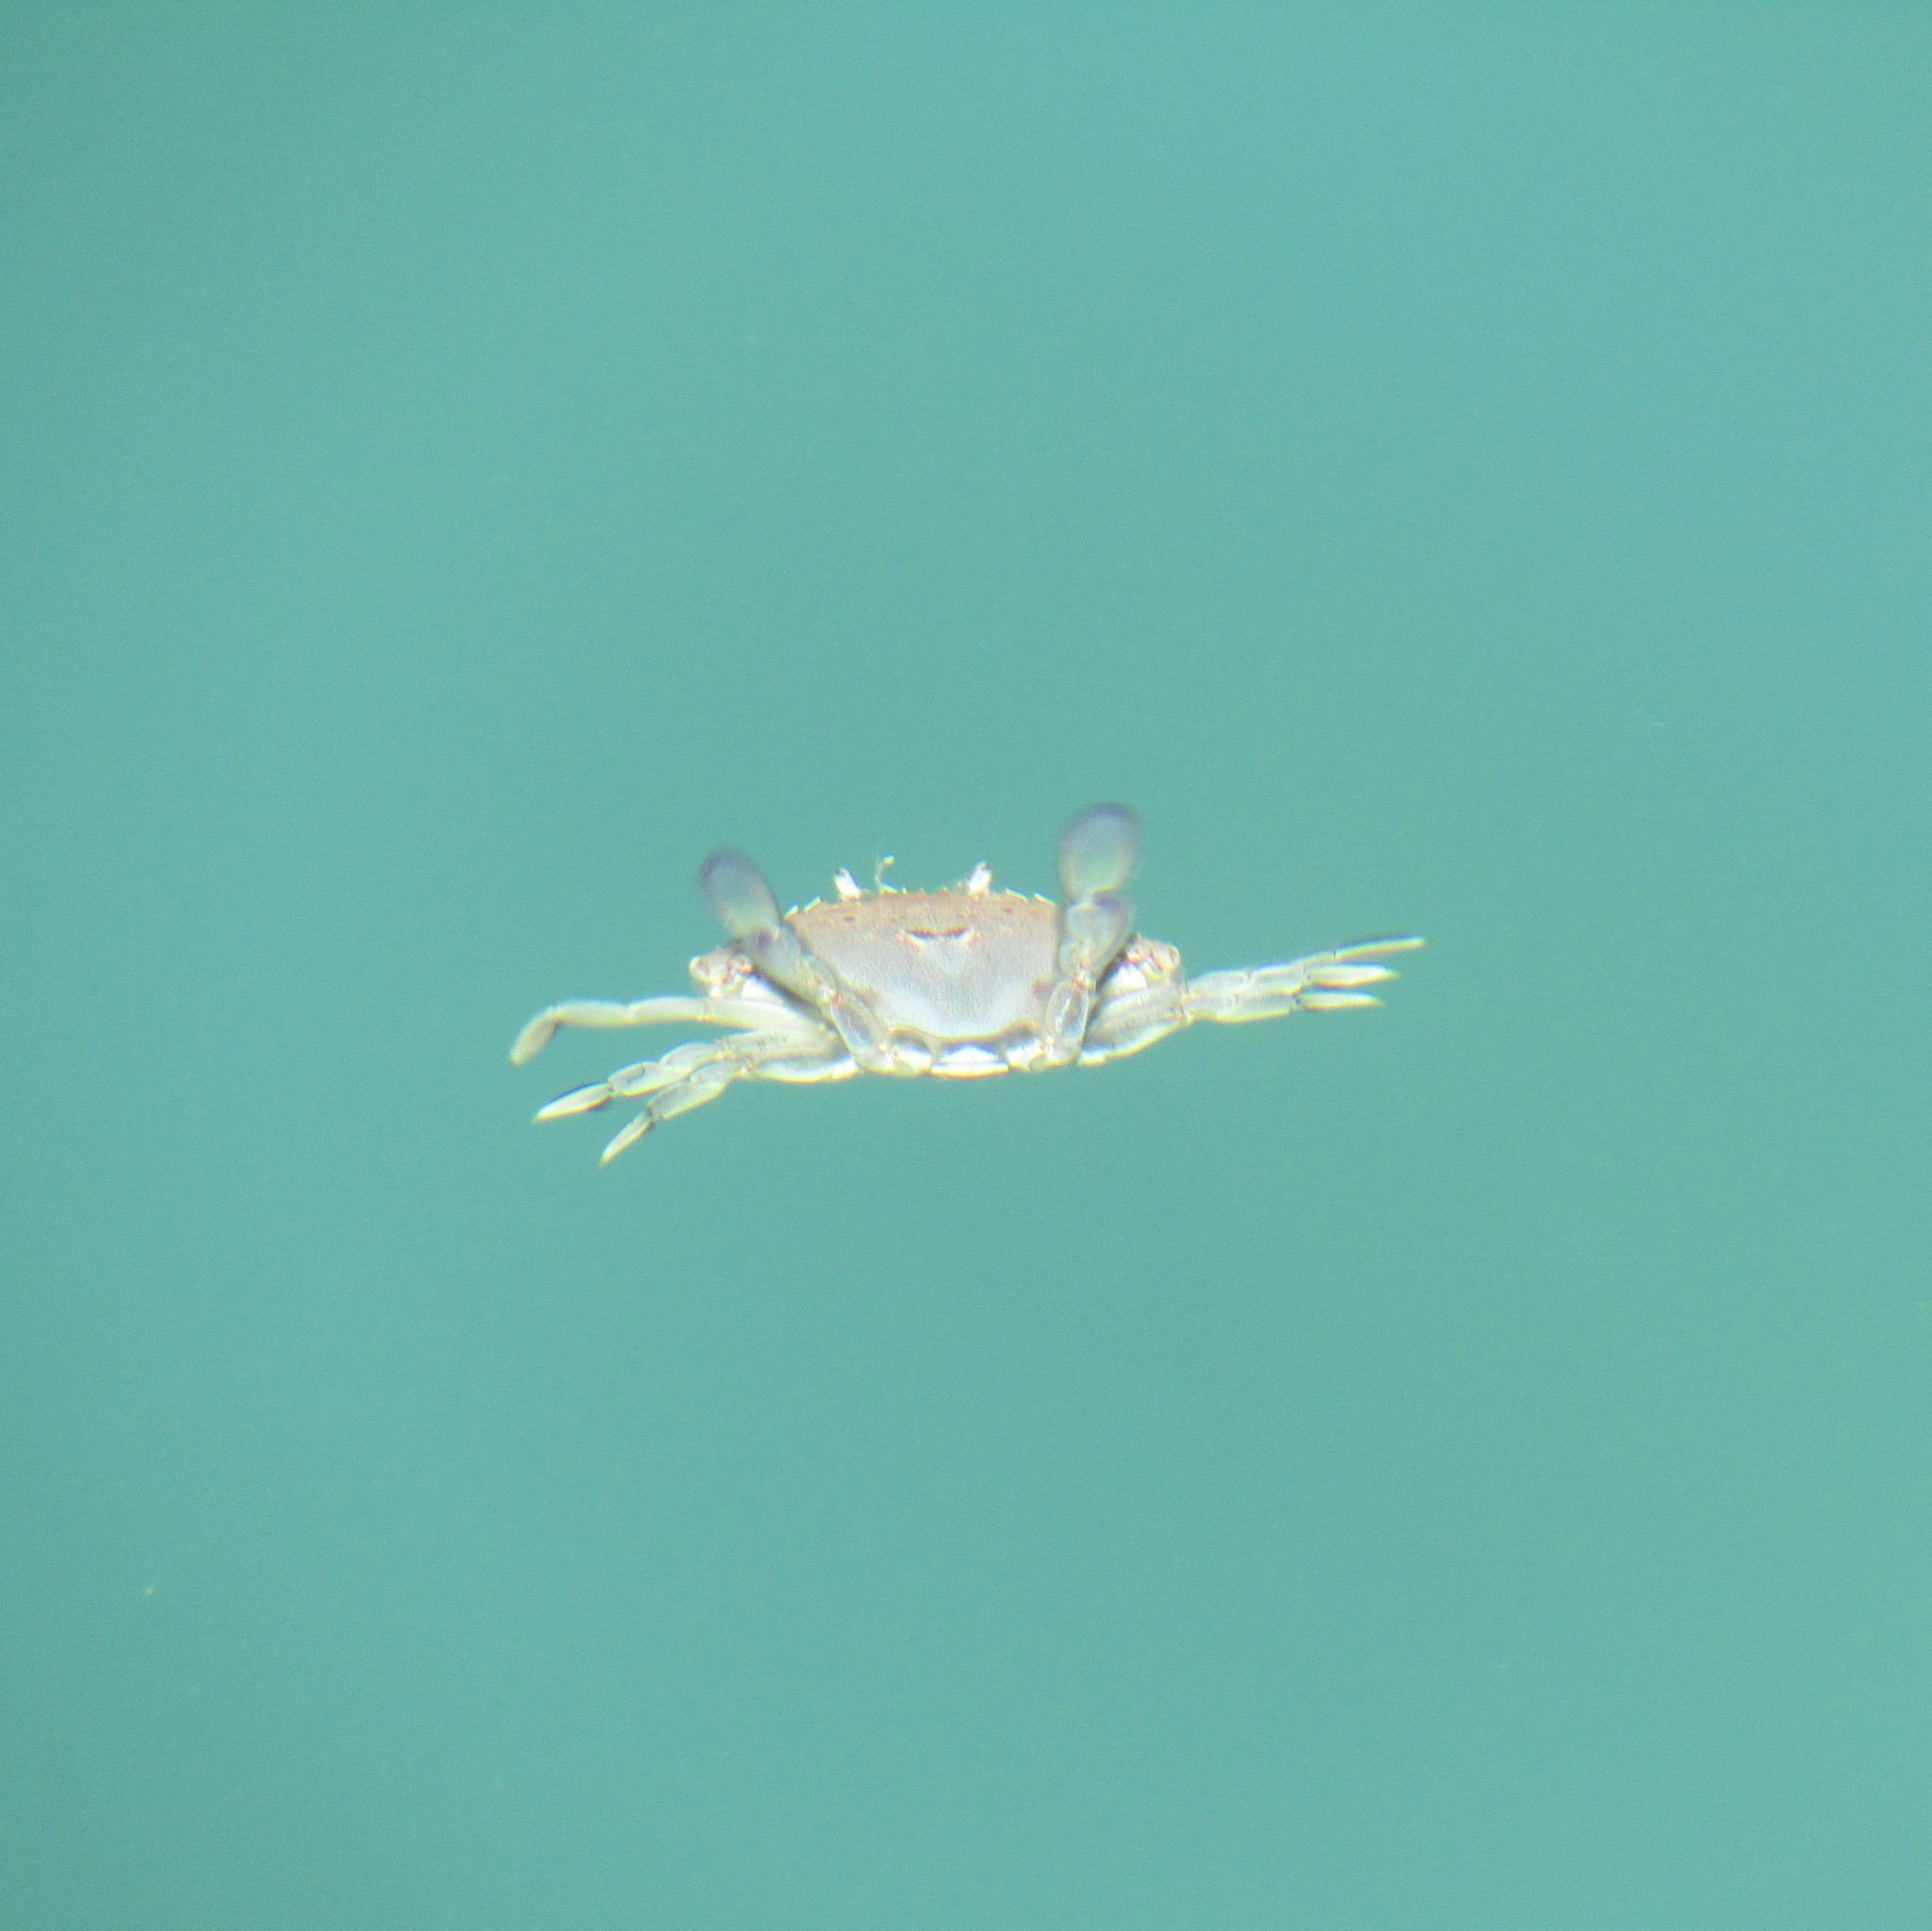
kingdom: Animalia
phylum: Arthropoda
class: Malacostraca
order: Decapoda
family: Ovalipidae
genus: Ovalipes
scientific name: Ovalipes catharus
